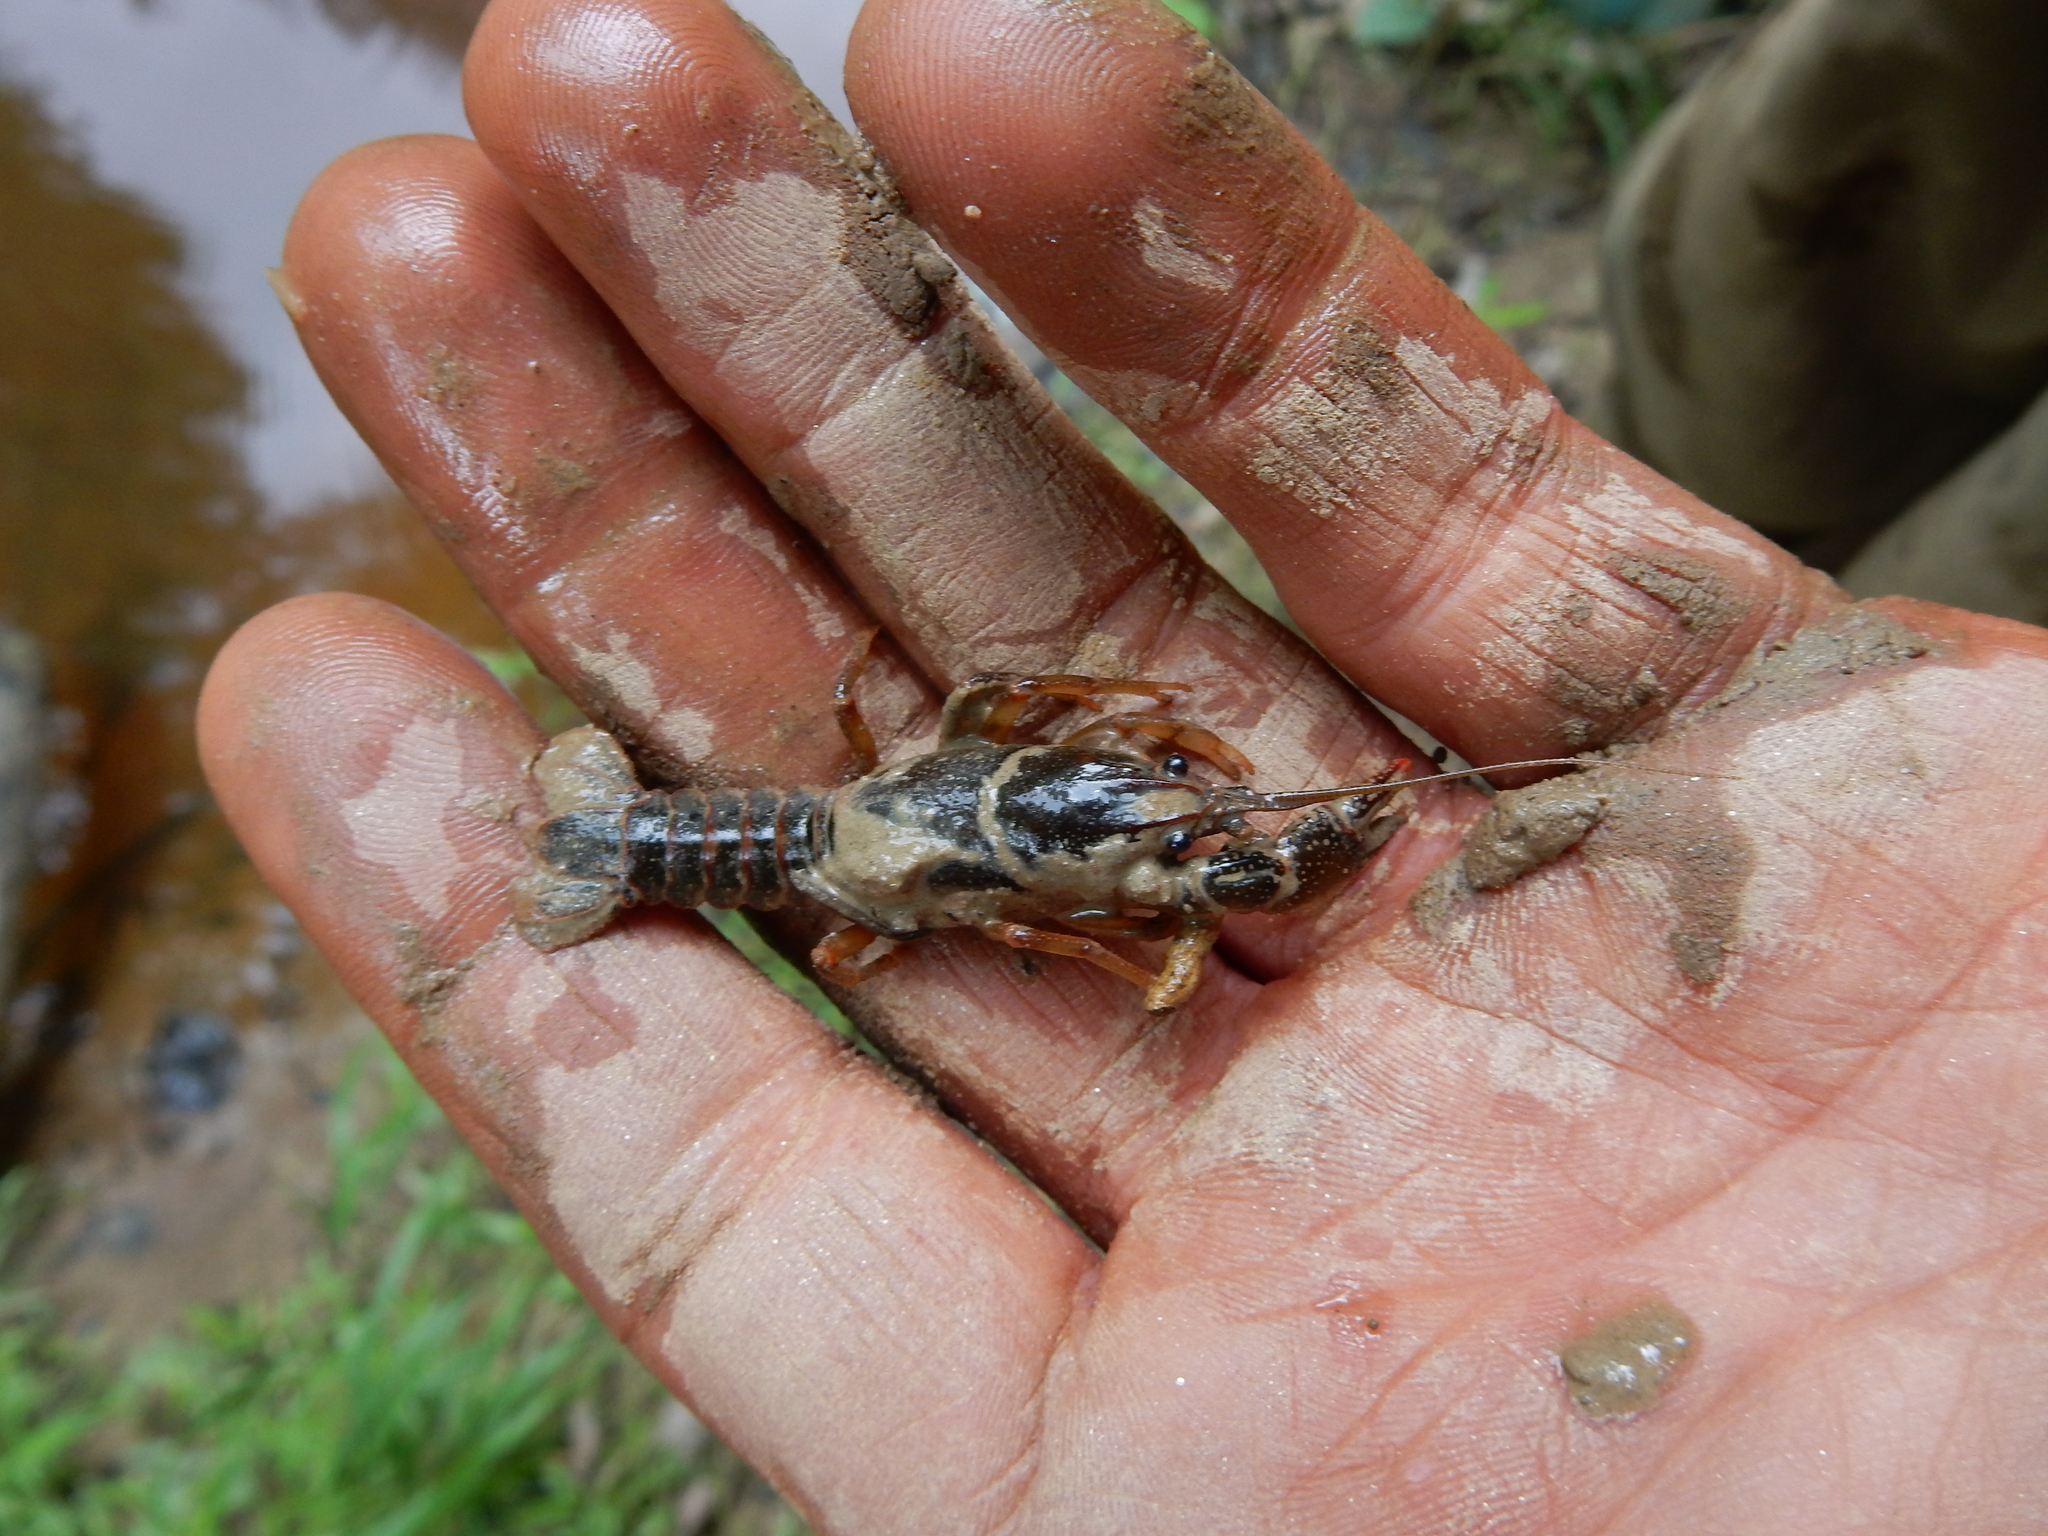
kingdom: Animalia
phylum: Arthropoda
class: Malacostraca
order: Decapoda
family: Cambaridae
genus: Lacunicambarus
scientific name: Lacunicambarus diogenes
